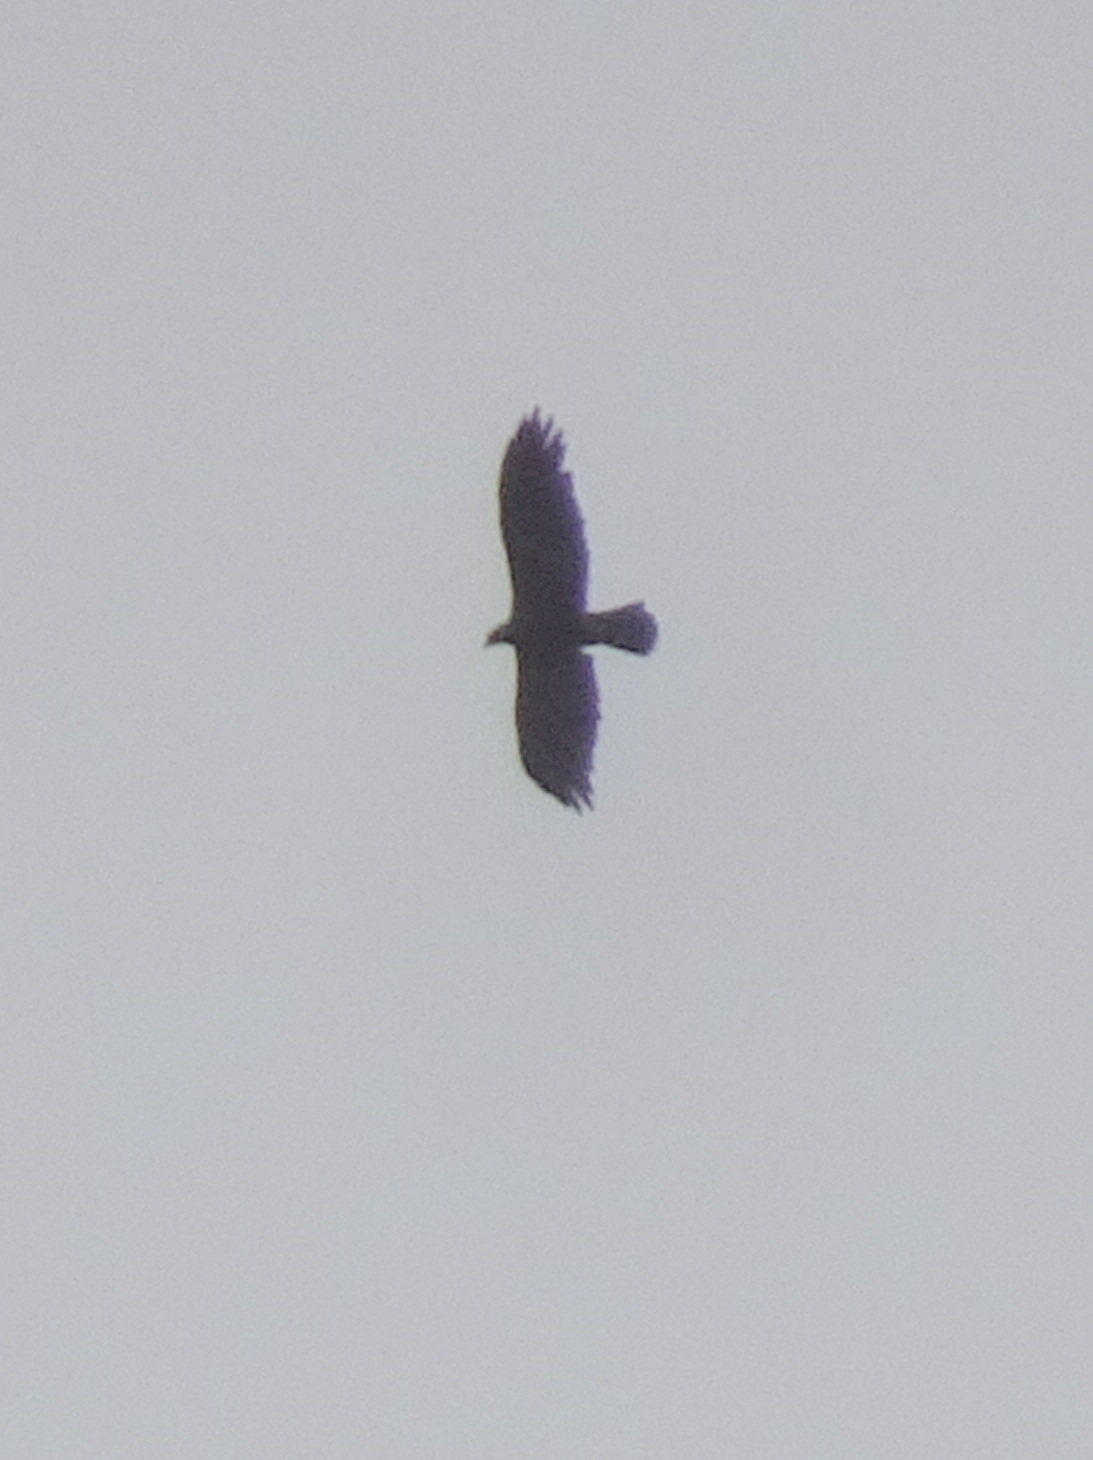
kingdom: Animalia
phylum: Chordata
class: Aves
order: Accipitriformes
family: Accipitridae
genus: Aquila
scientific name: Aquila chrysaetos
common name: Golden eagle
